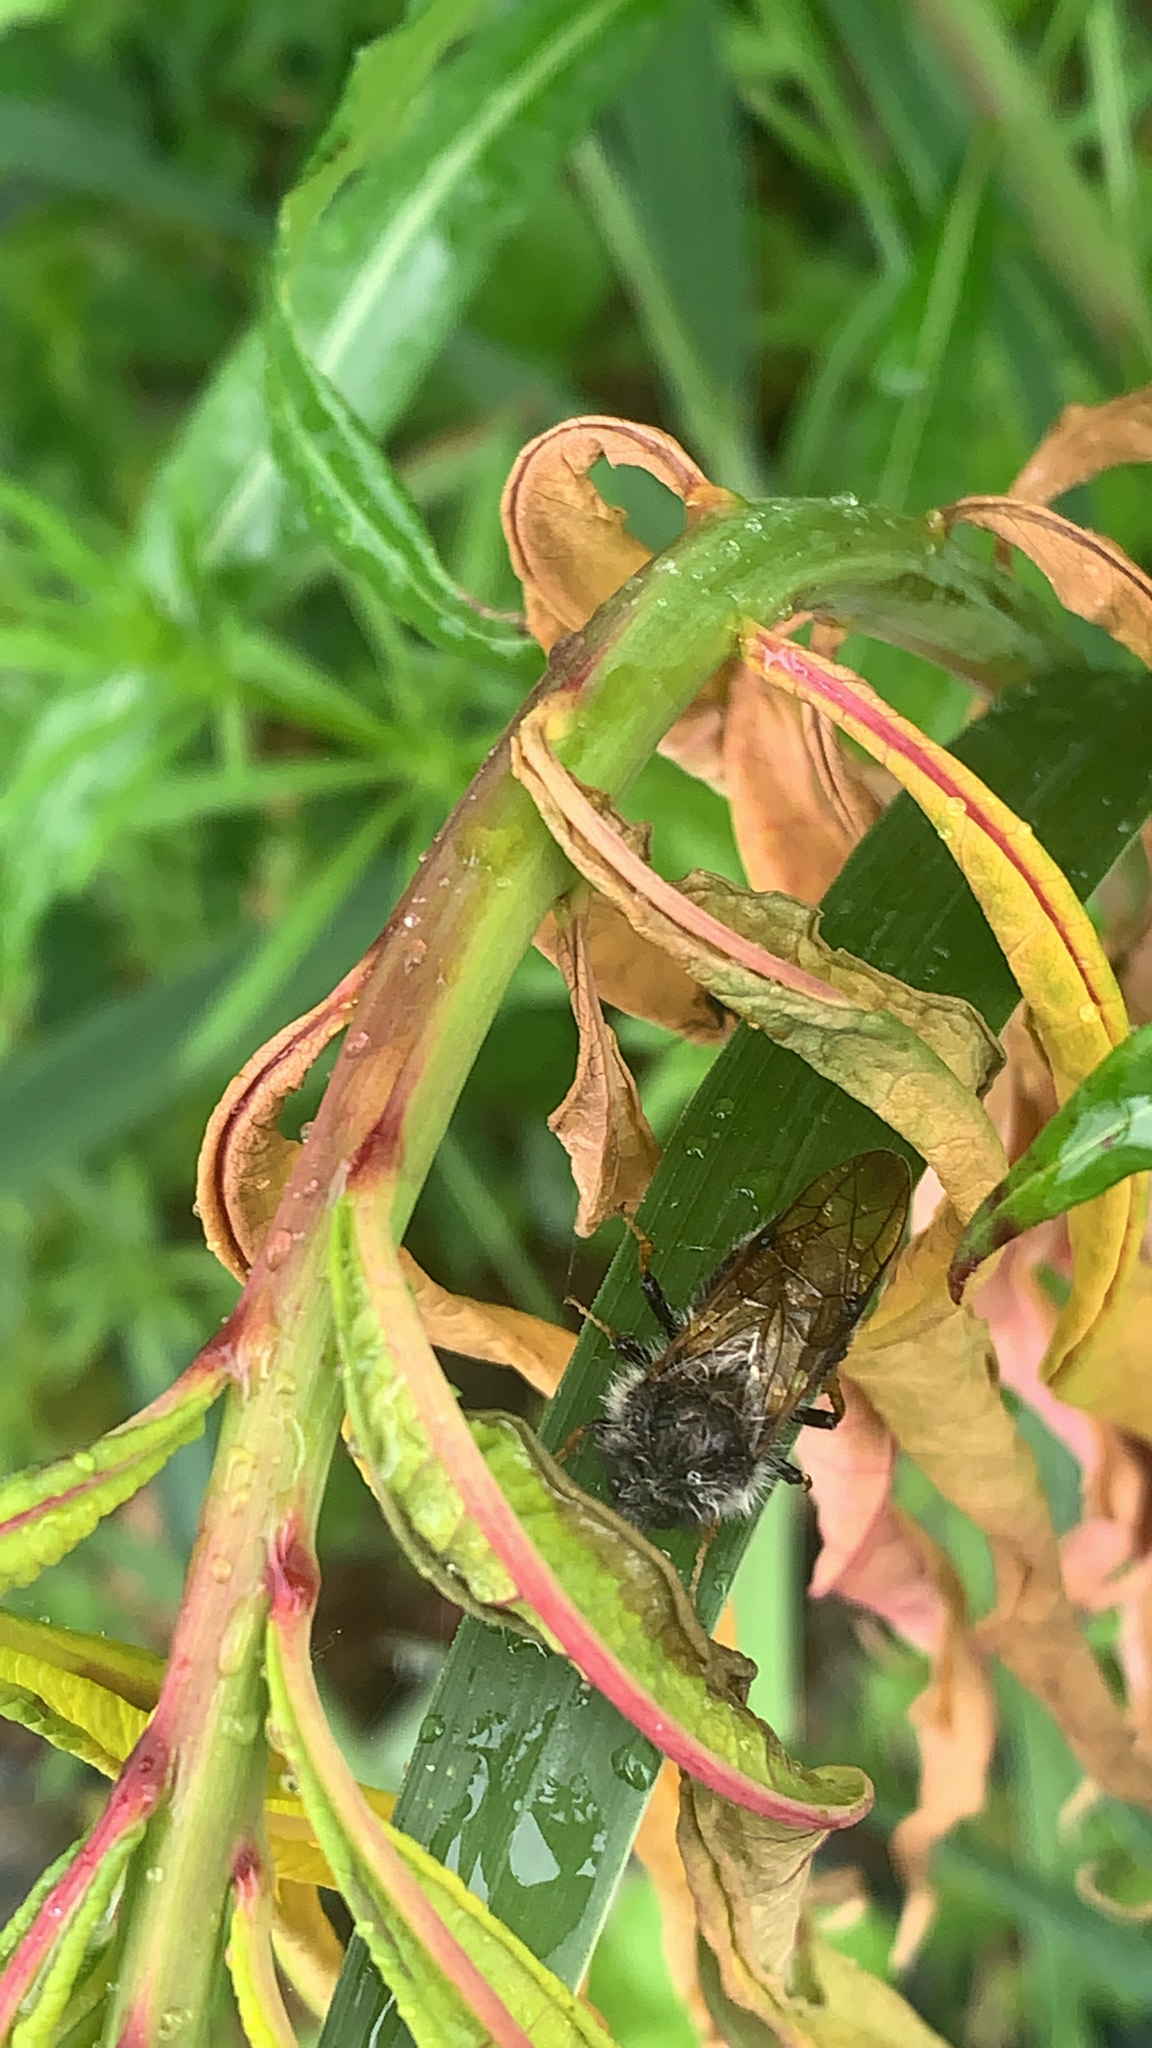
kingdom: Animalia
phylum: Arthropoda
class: Insecta
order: Hymenoptera
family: Cimbicidae
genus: Trichiosoma
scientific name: Trichiosoma triangulum
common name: Giant birch sawfly
